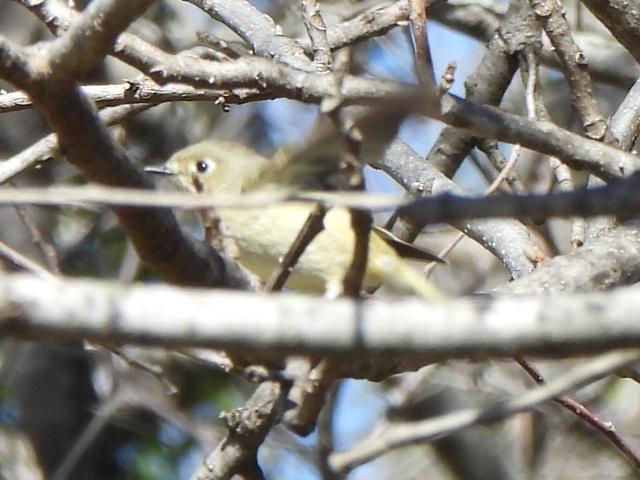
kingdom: Animalia
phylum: Chordata
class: Aves
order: Passeriformes
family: Regulidae
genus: Regulus
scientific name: Regulus calendula
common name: Ruby-crowned kinglet
